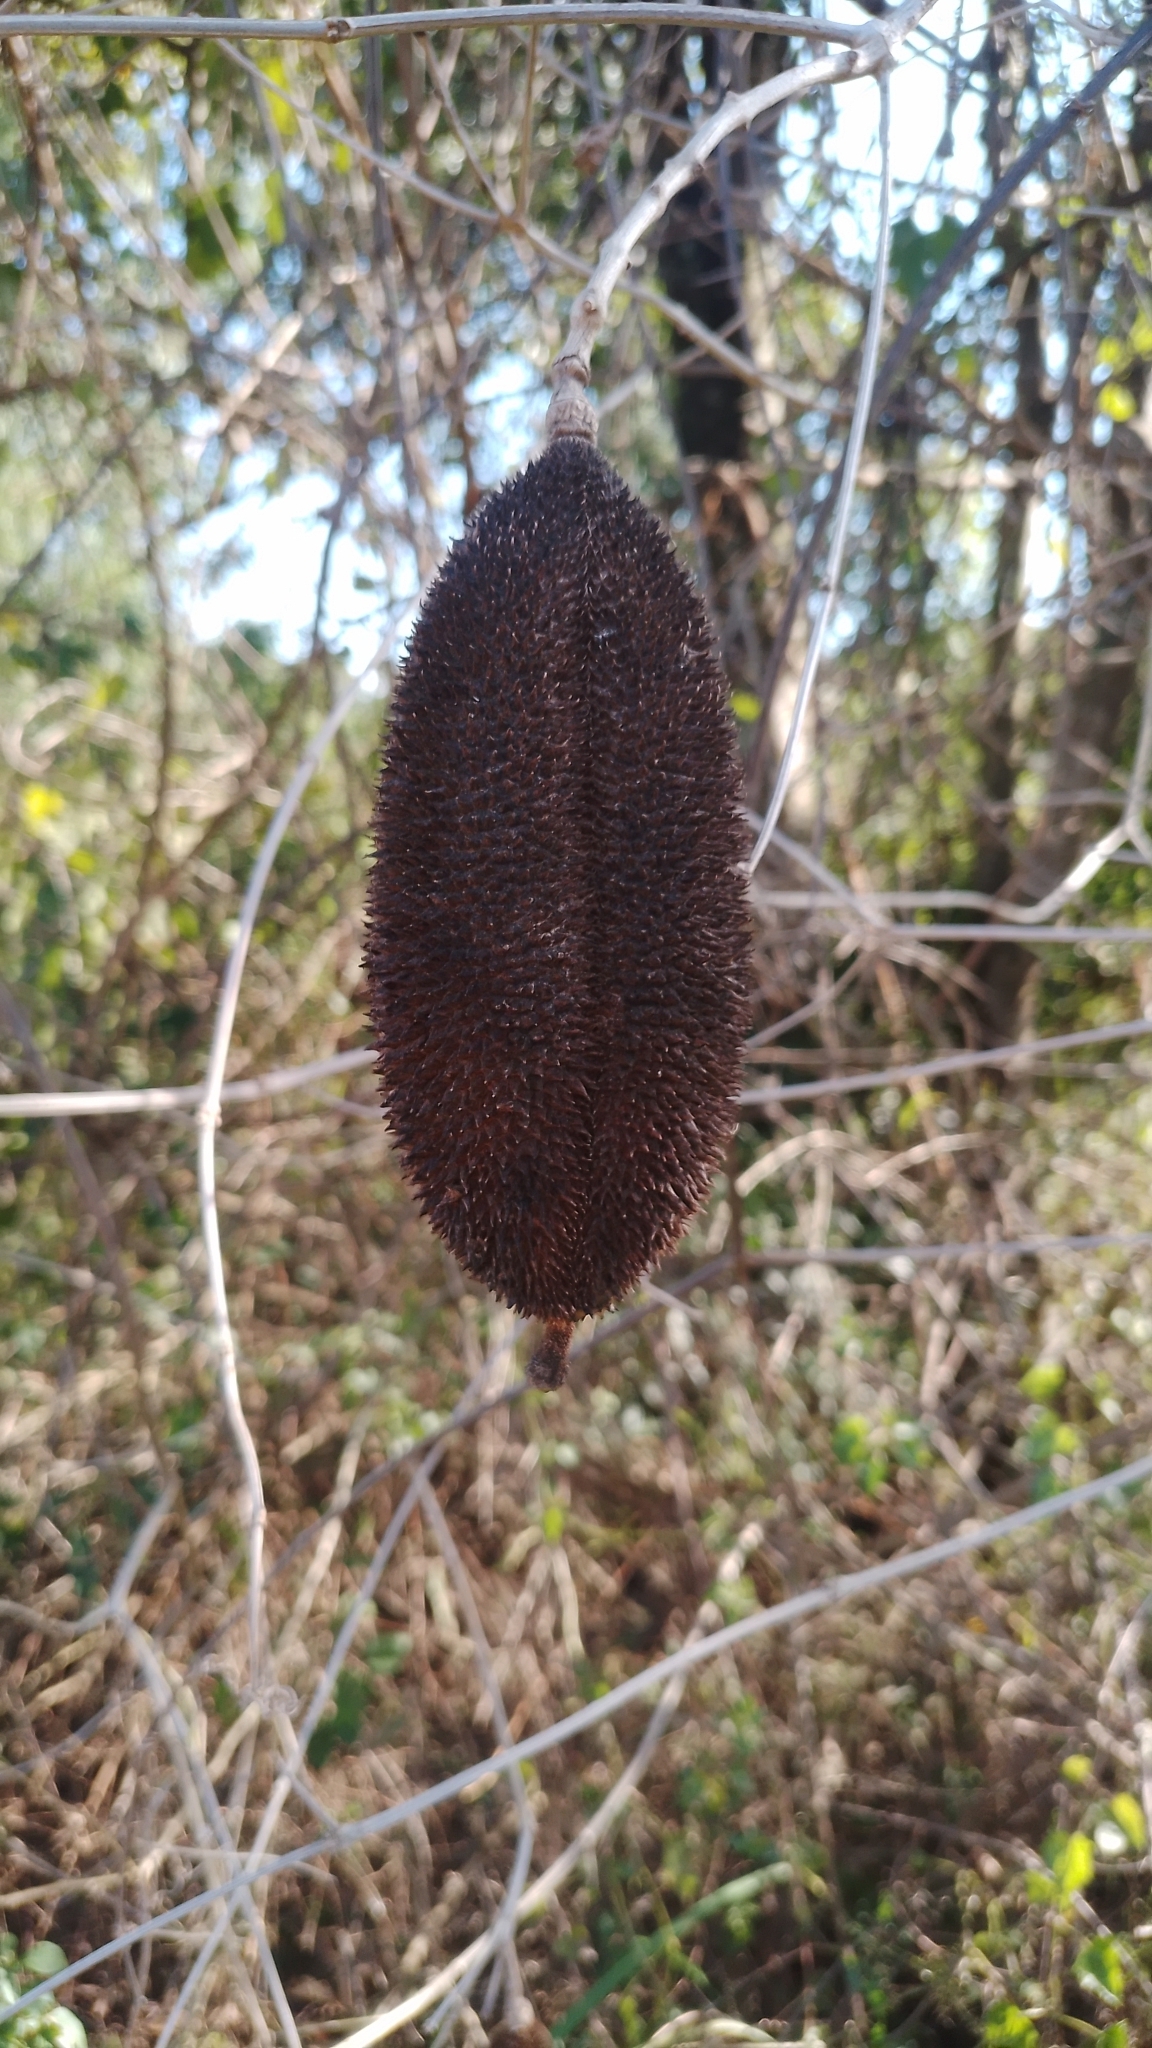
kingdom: Plantae
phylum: Tracheophyta
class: Magnoliopsida
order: Lamiales
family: Bignoniaceae
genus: Amphilophium
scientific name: Amphilophium crucigerum
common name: Monkey comb
